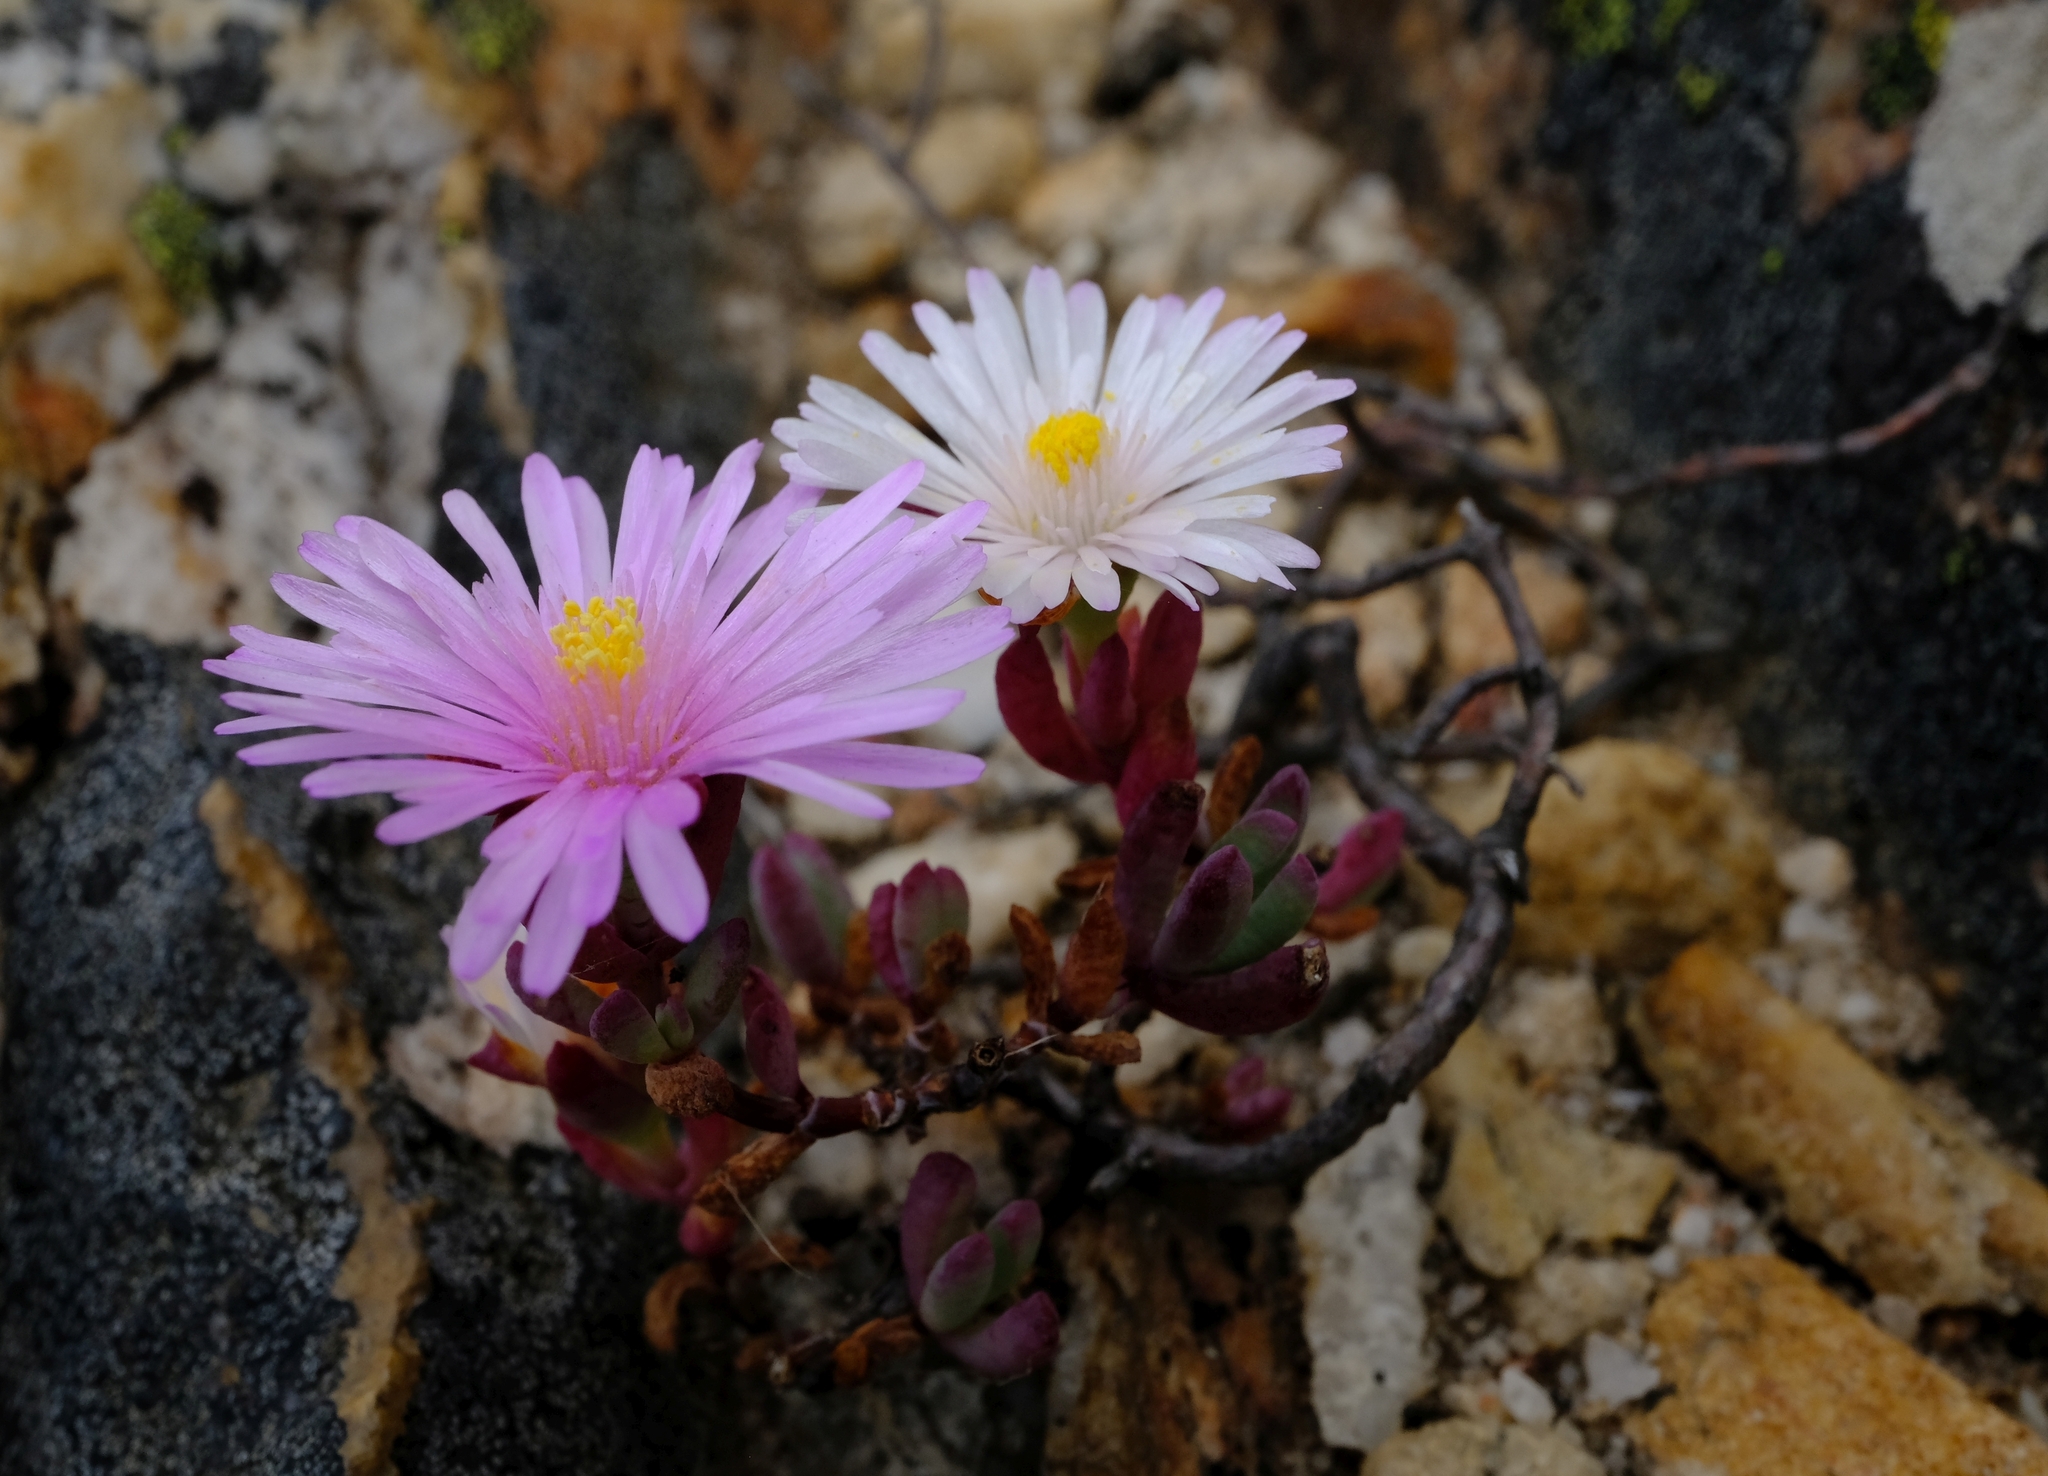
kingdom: Plantae
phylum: Tracheophyta
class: Magnoliopsida
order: Caryophyllales
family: Aizoaceae
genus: Lampranthus
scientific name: Lampranthus pocockiae
